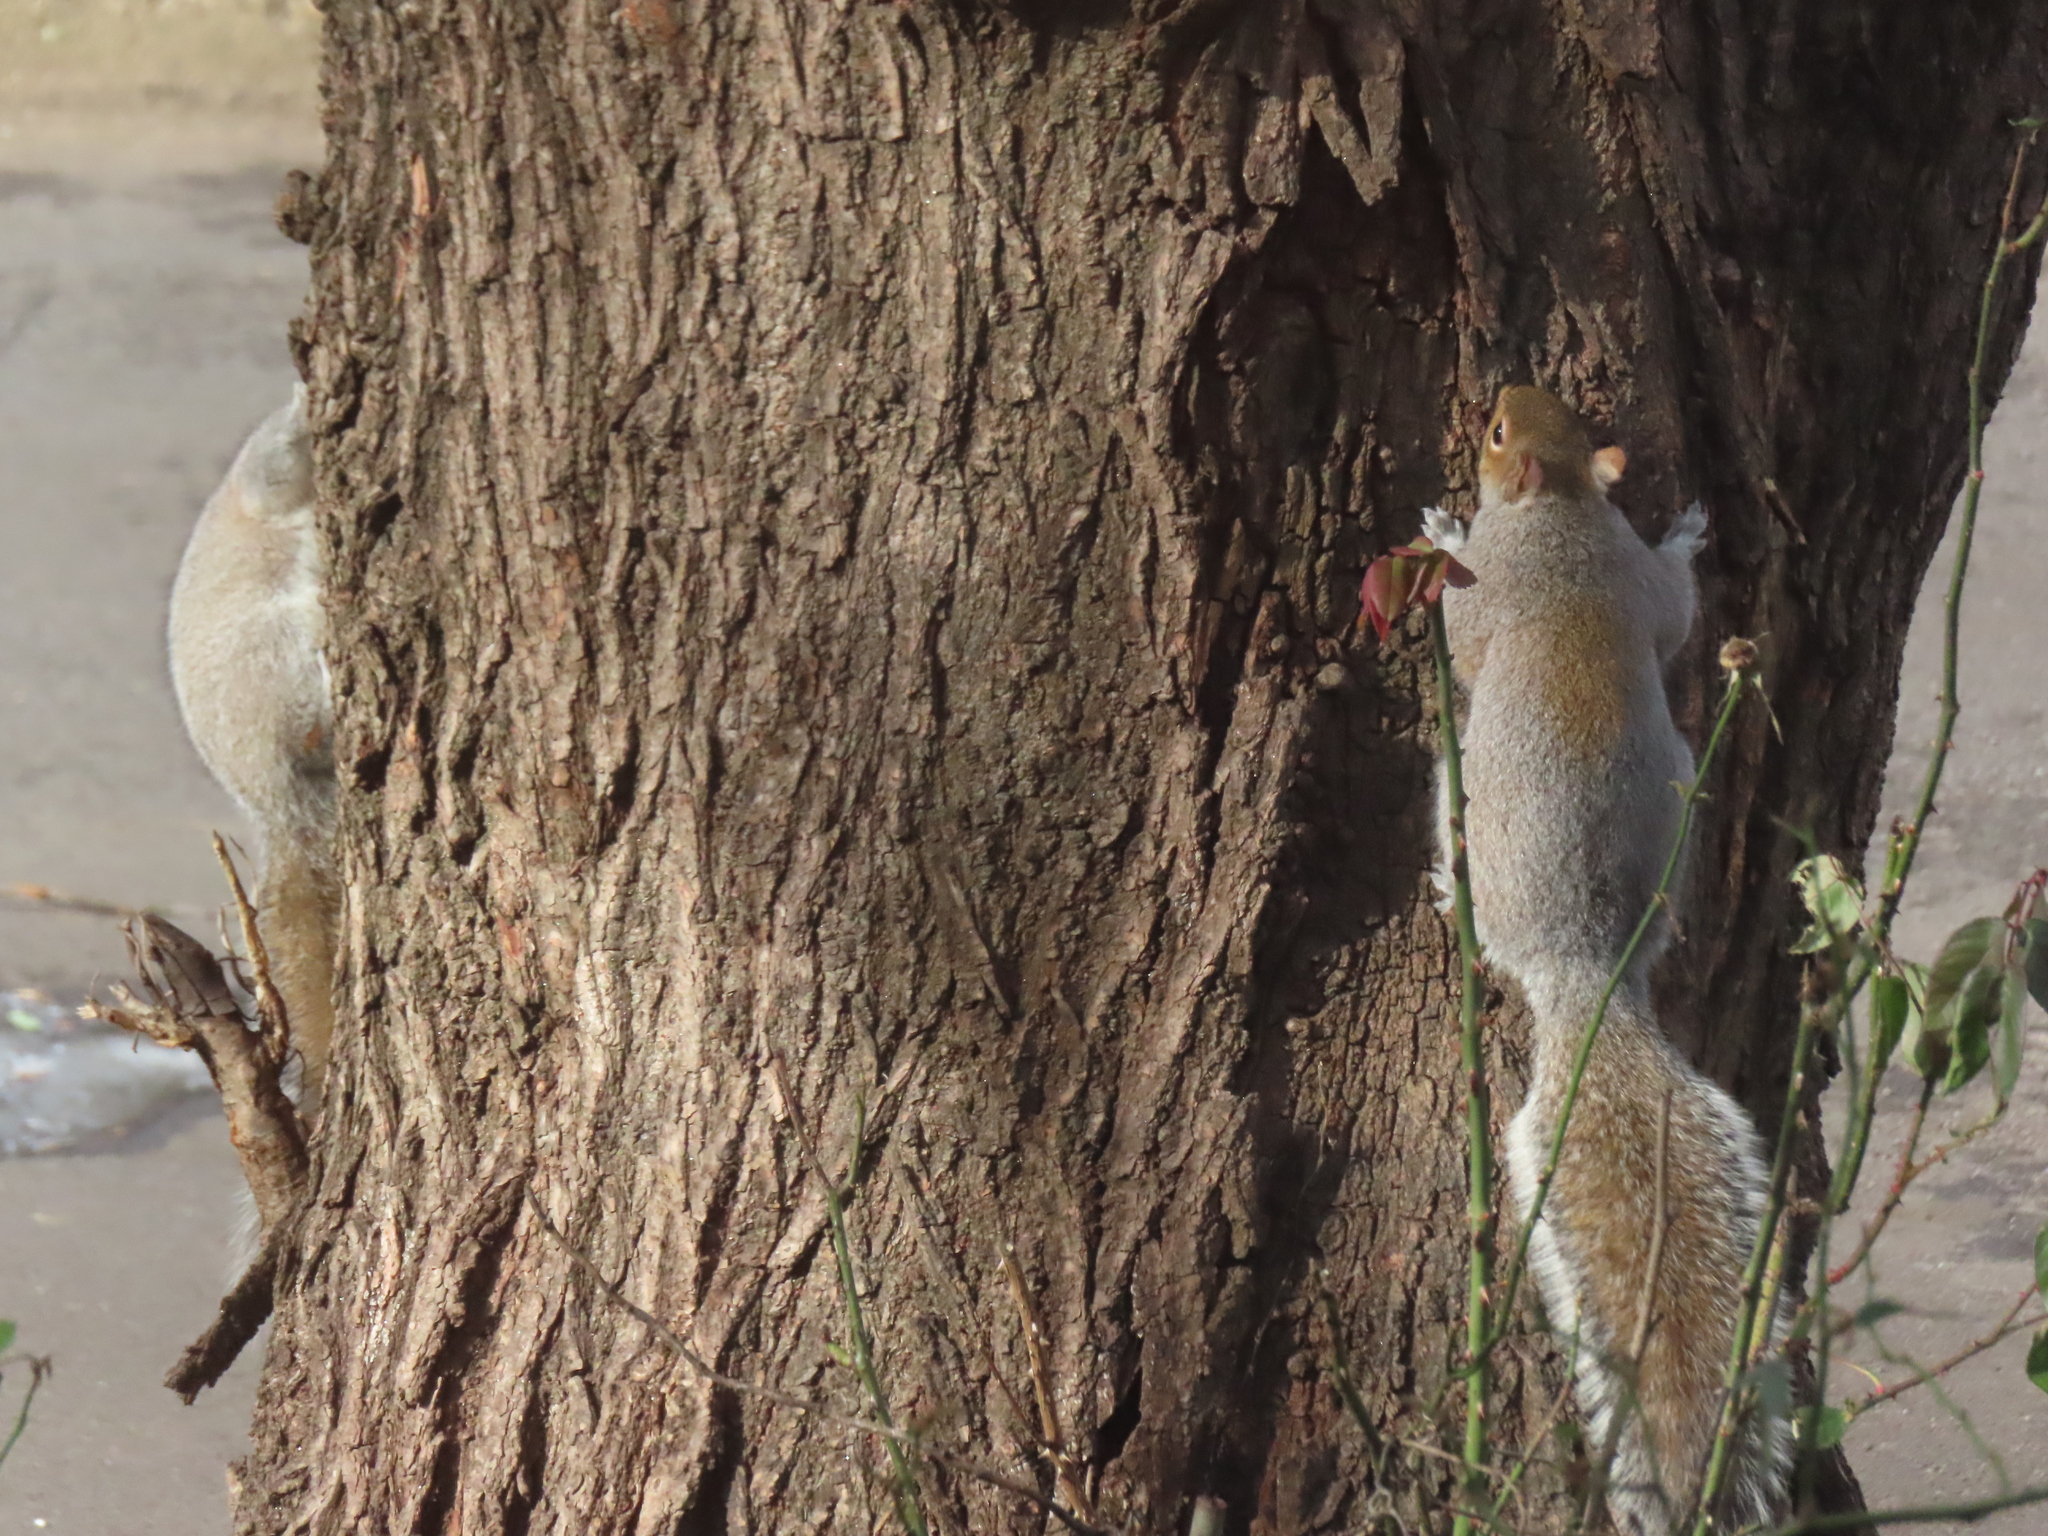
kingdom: Animalia
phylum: Chordata
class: Mammalia
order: Rodentia
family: Sciuridae
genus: Sciurus
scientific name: Sciurus carolinensis
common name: Eastern gray squirrel
